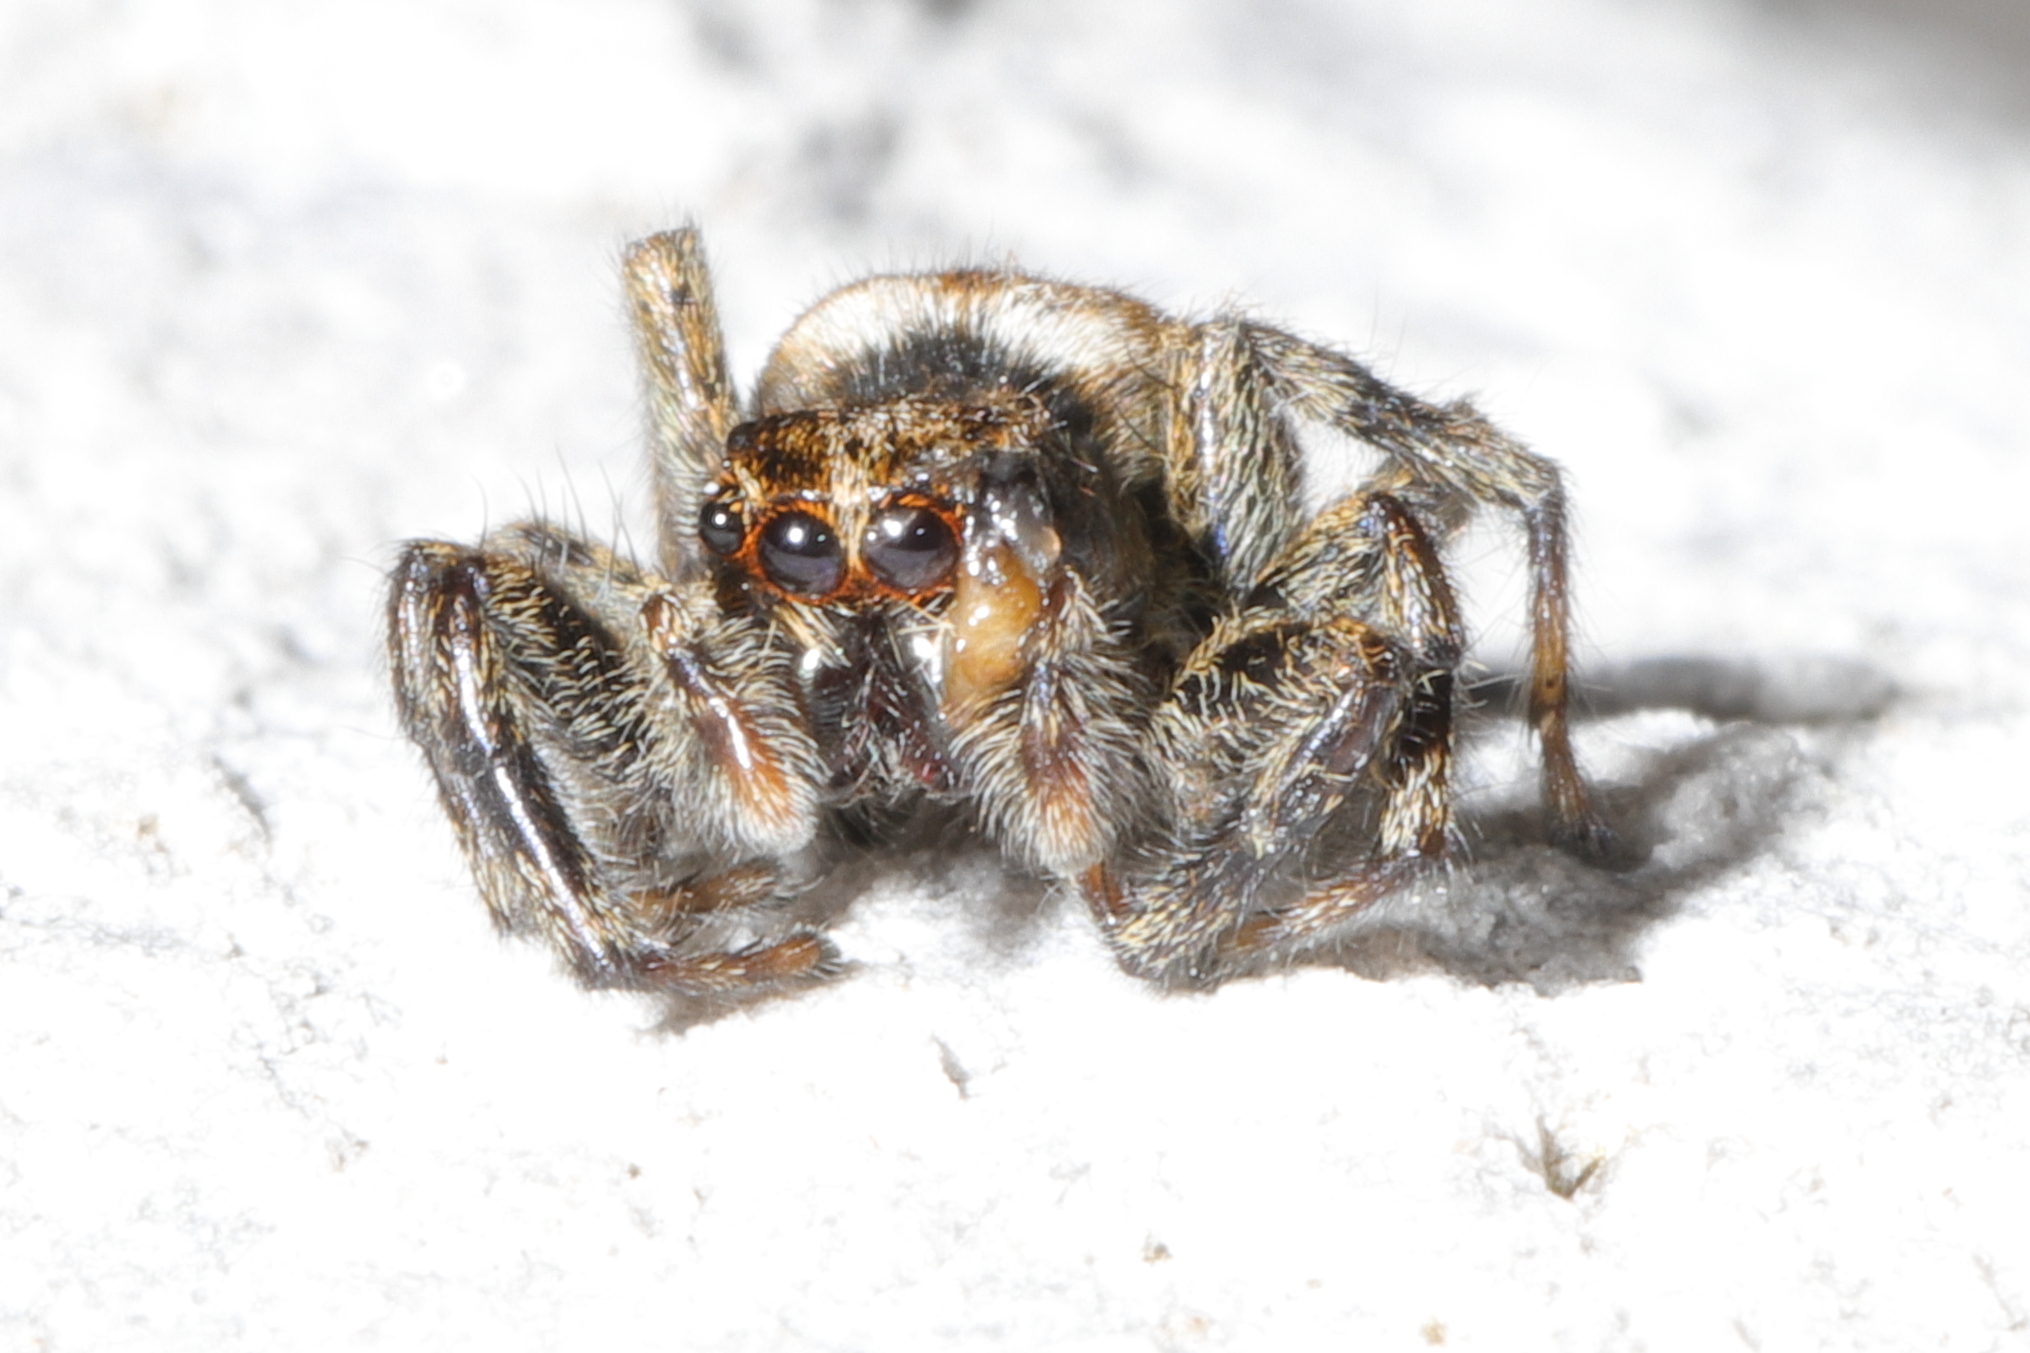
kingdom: Animalia
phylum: Arthropoda
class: Arachnida
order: Araneae
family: Salticidae
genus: Hakka
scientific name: Hakka himeshimensis
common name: Jumping spider
